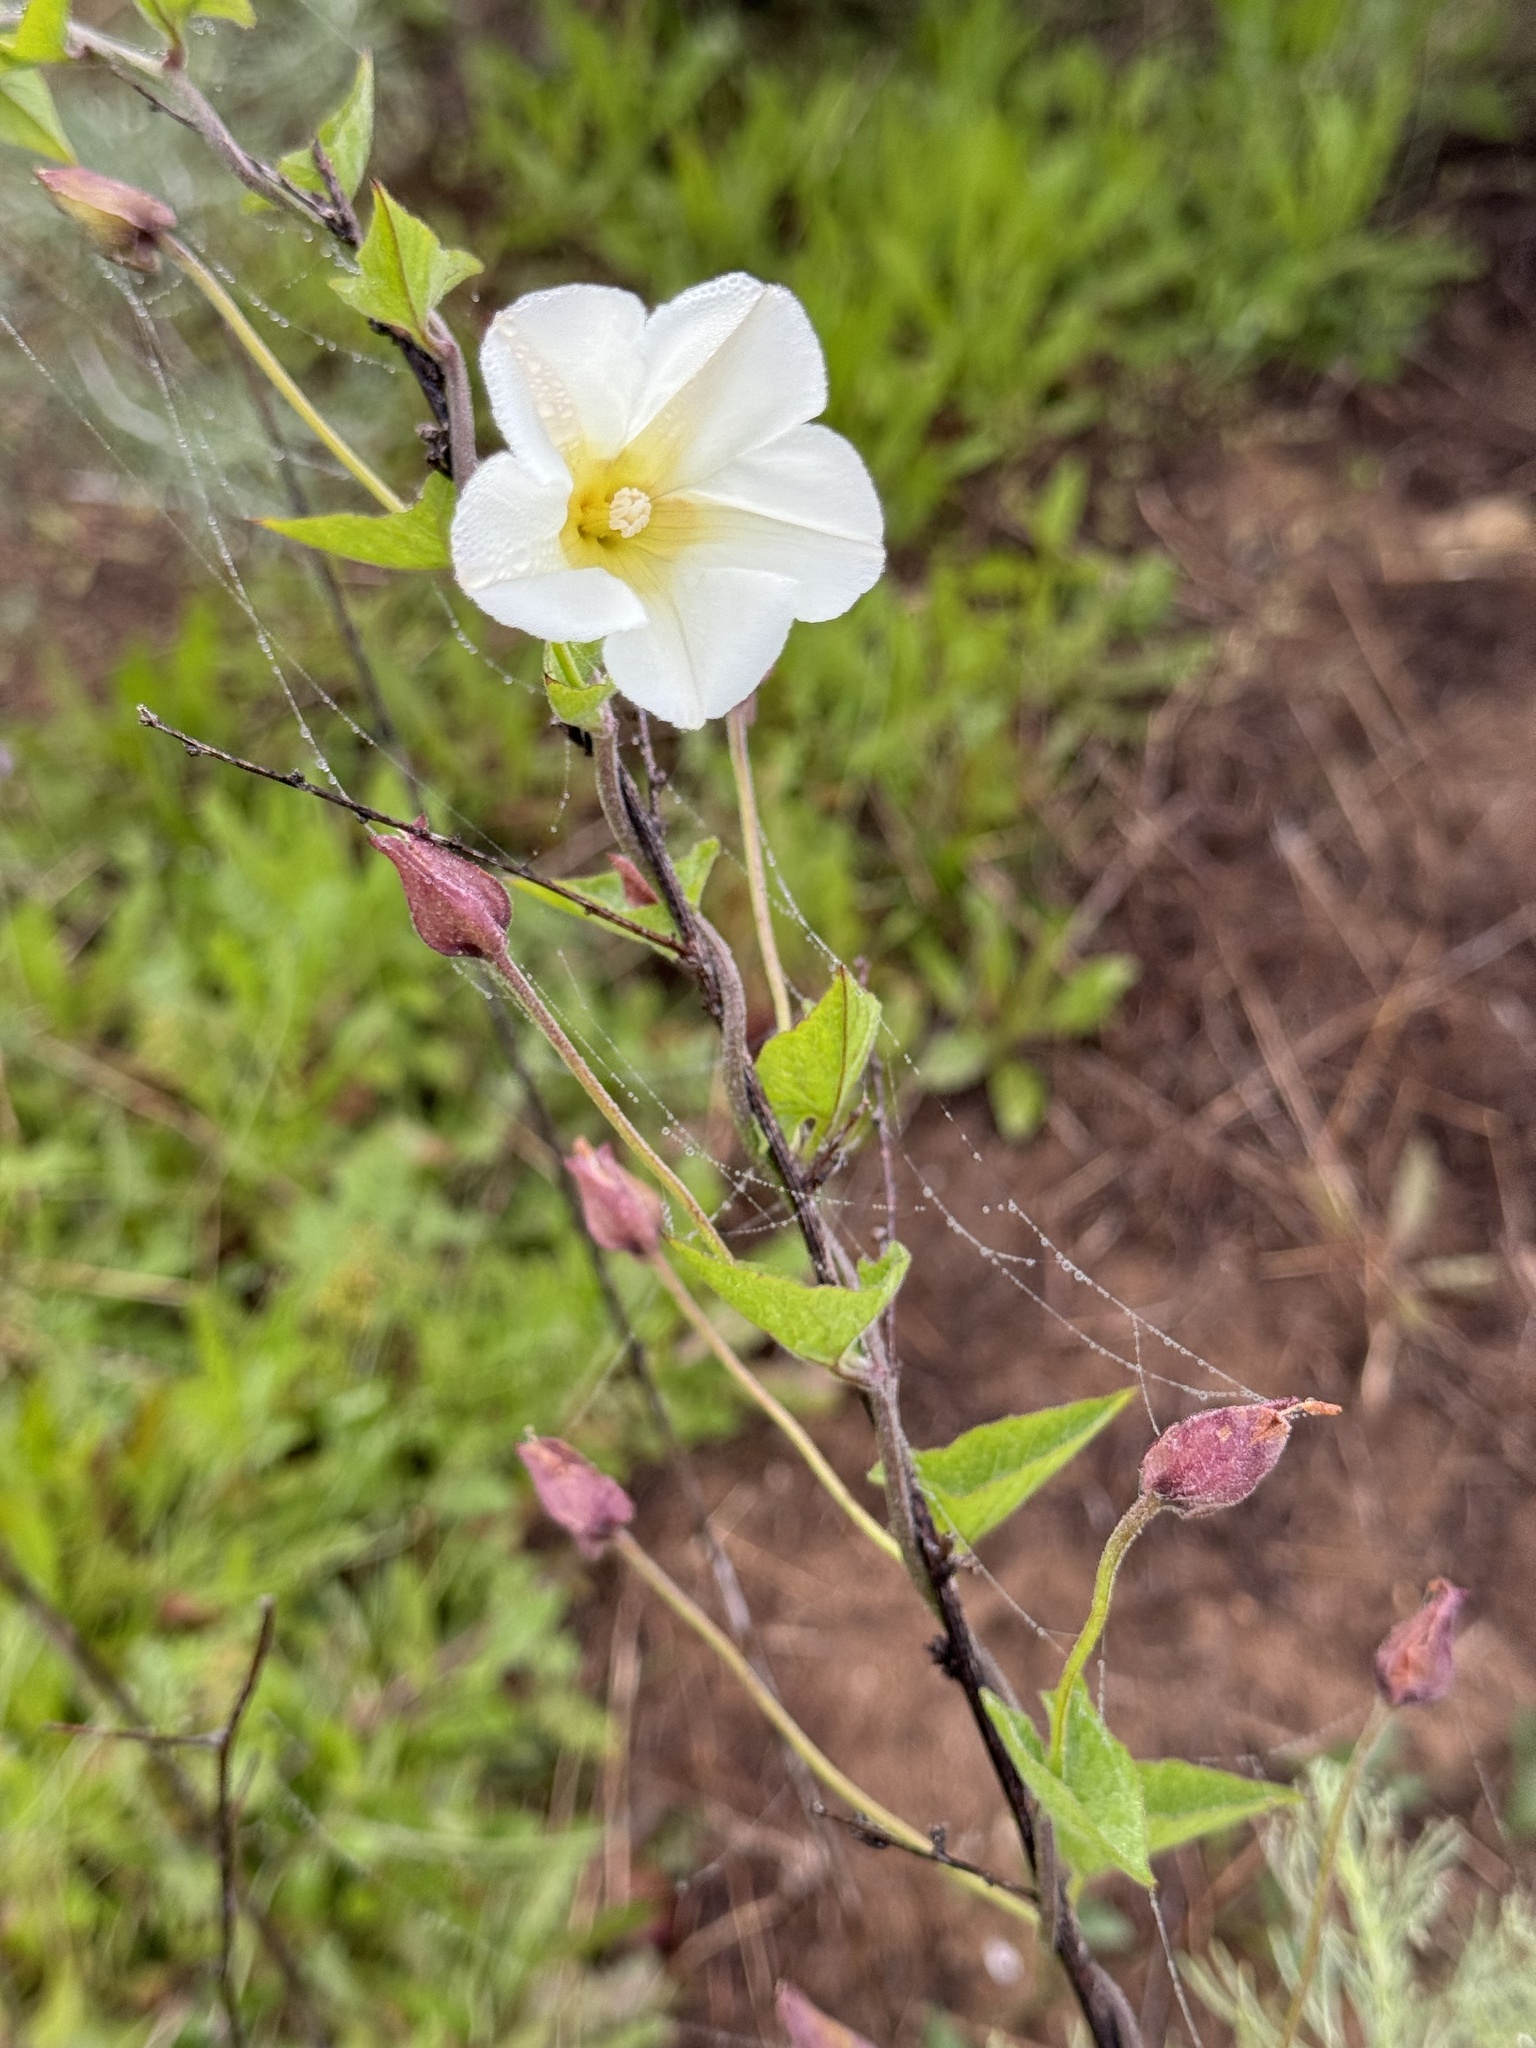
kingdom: Plantae
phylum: Tracheophyta
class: Magnoliopsida
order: Solanales
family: Convolvulaceae
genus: Calystegia
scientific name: Calystegia macrostegia
